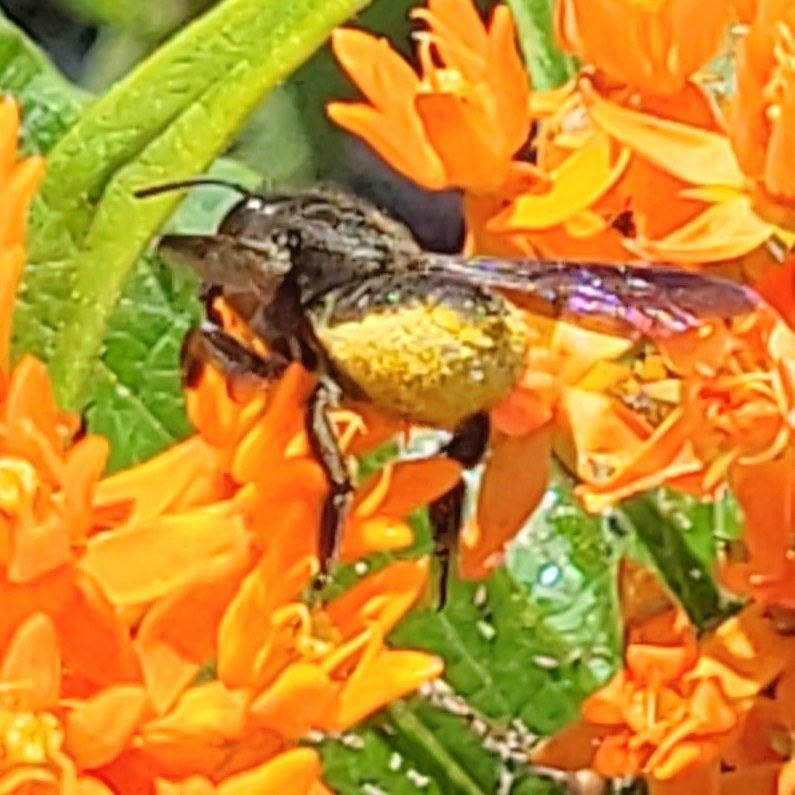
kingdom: Animalia
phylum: Arthropoda
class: Insecta
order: Hymenoptera
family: Megachilidae
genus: Megachile
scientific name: Megachile xylocopoides
